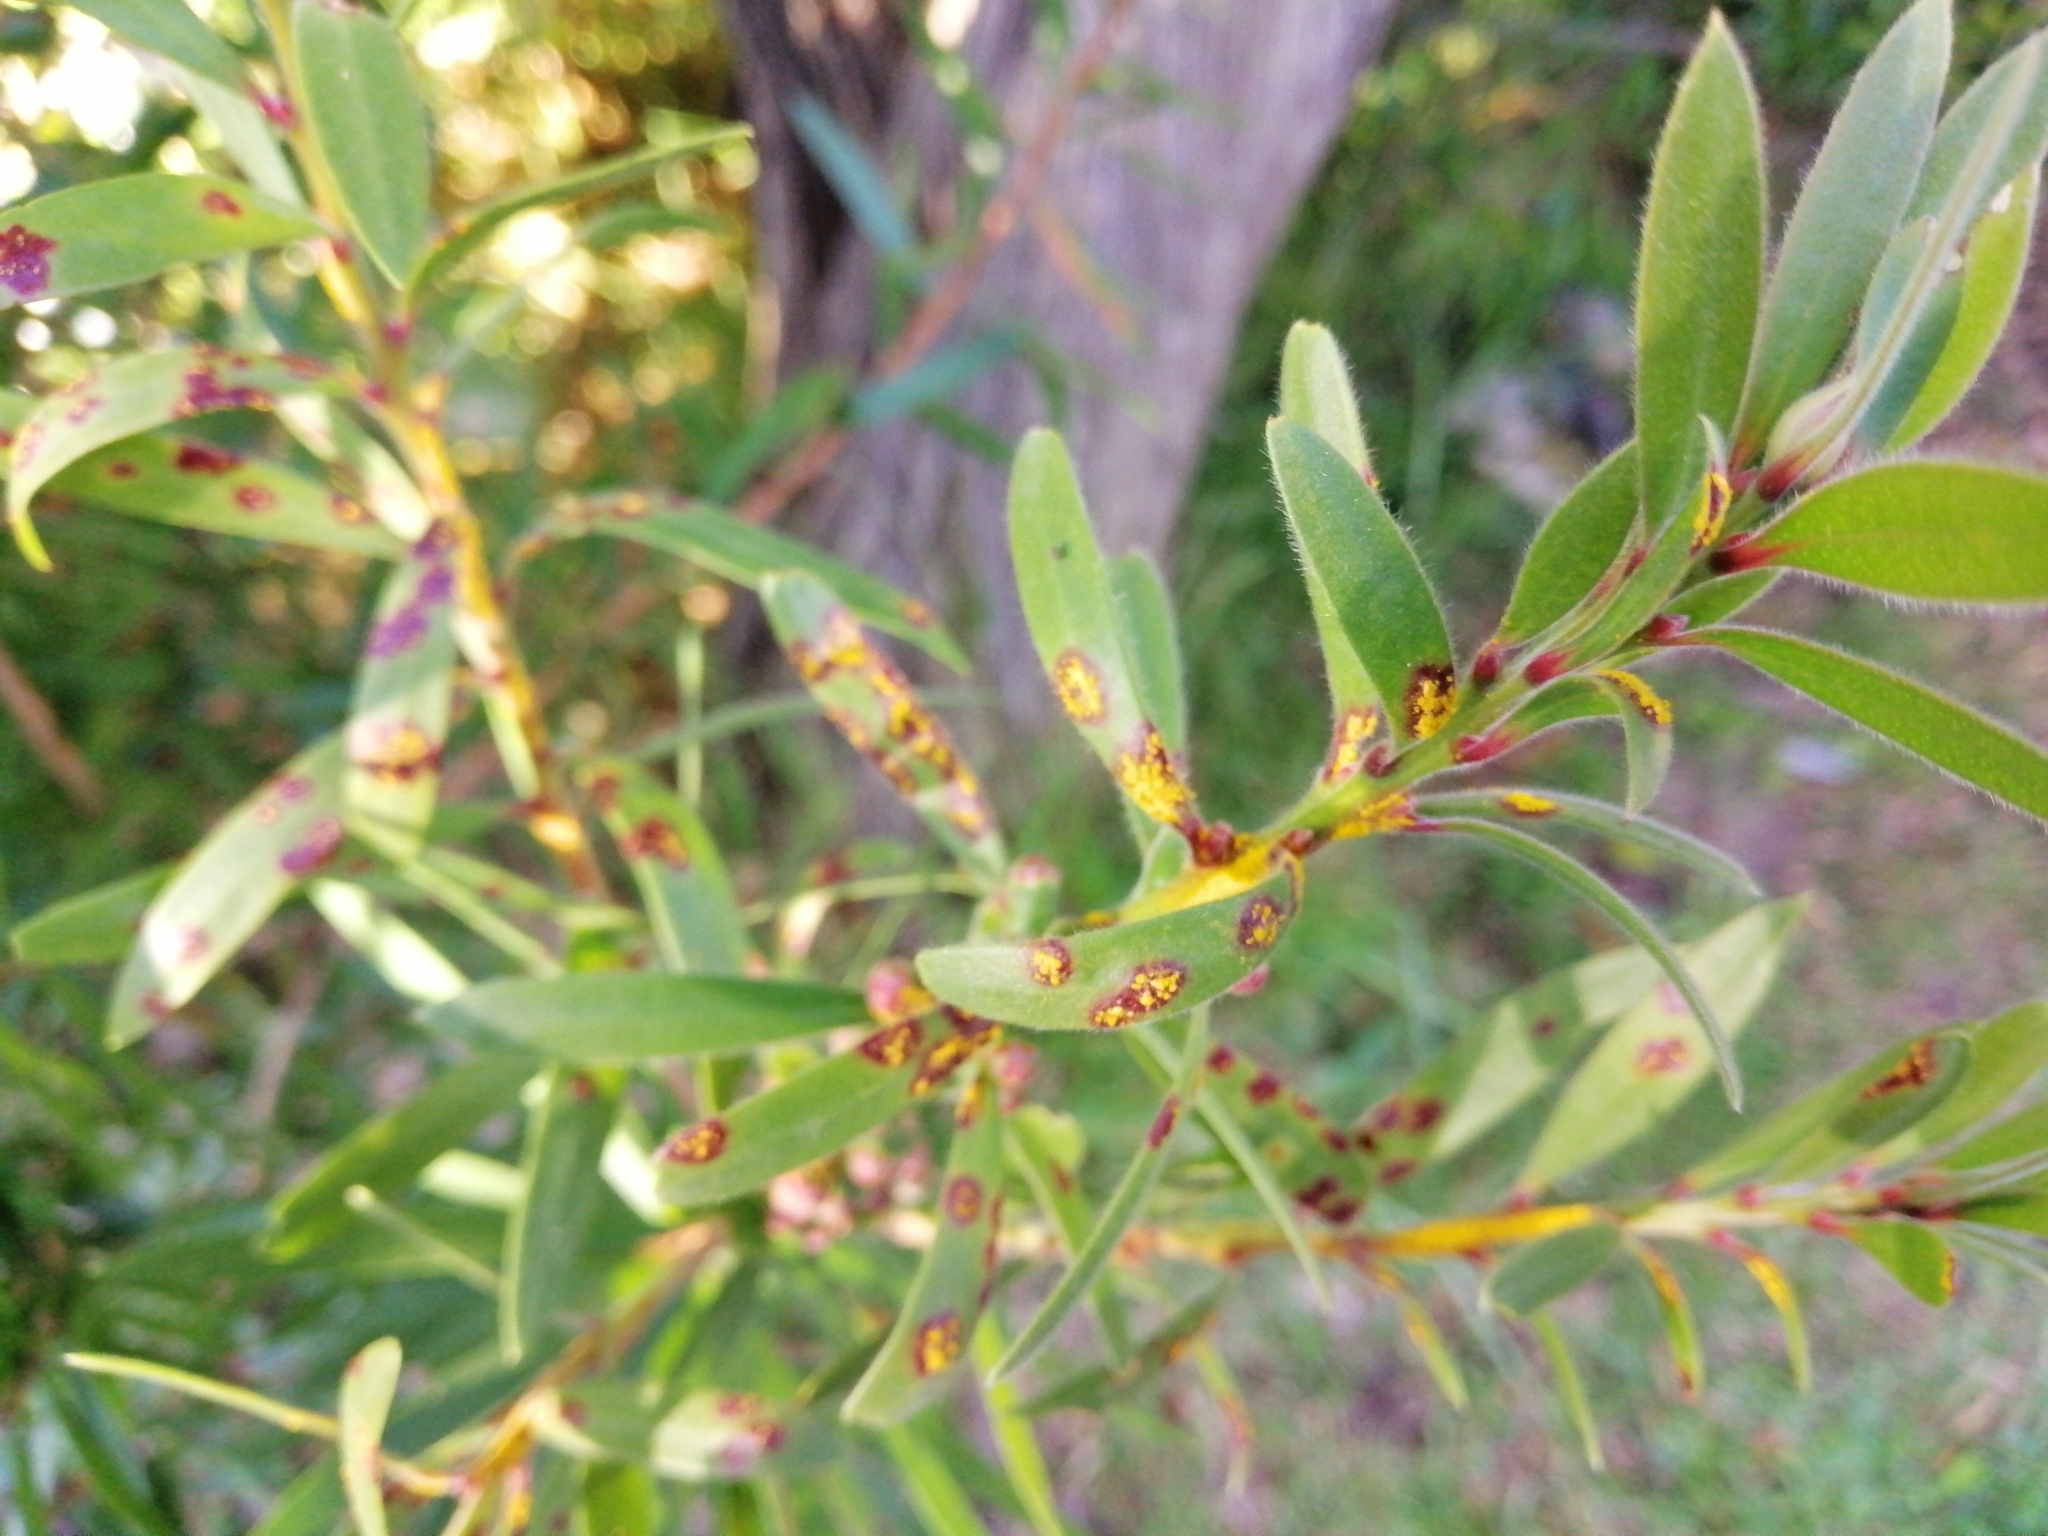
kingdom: Fungi
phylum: Basidiomycota
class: Pucciniomycetes
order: Pucciniales
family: Sphaerophragmiaceae
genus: Austropuccinia
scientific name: Austropuccinia psidii
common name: Myrtle rust
